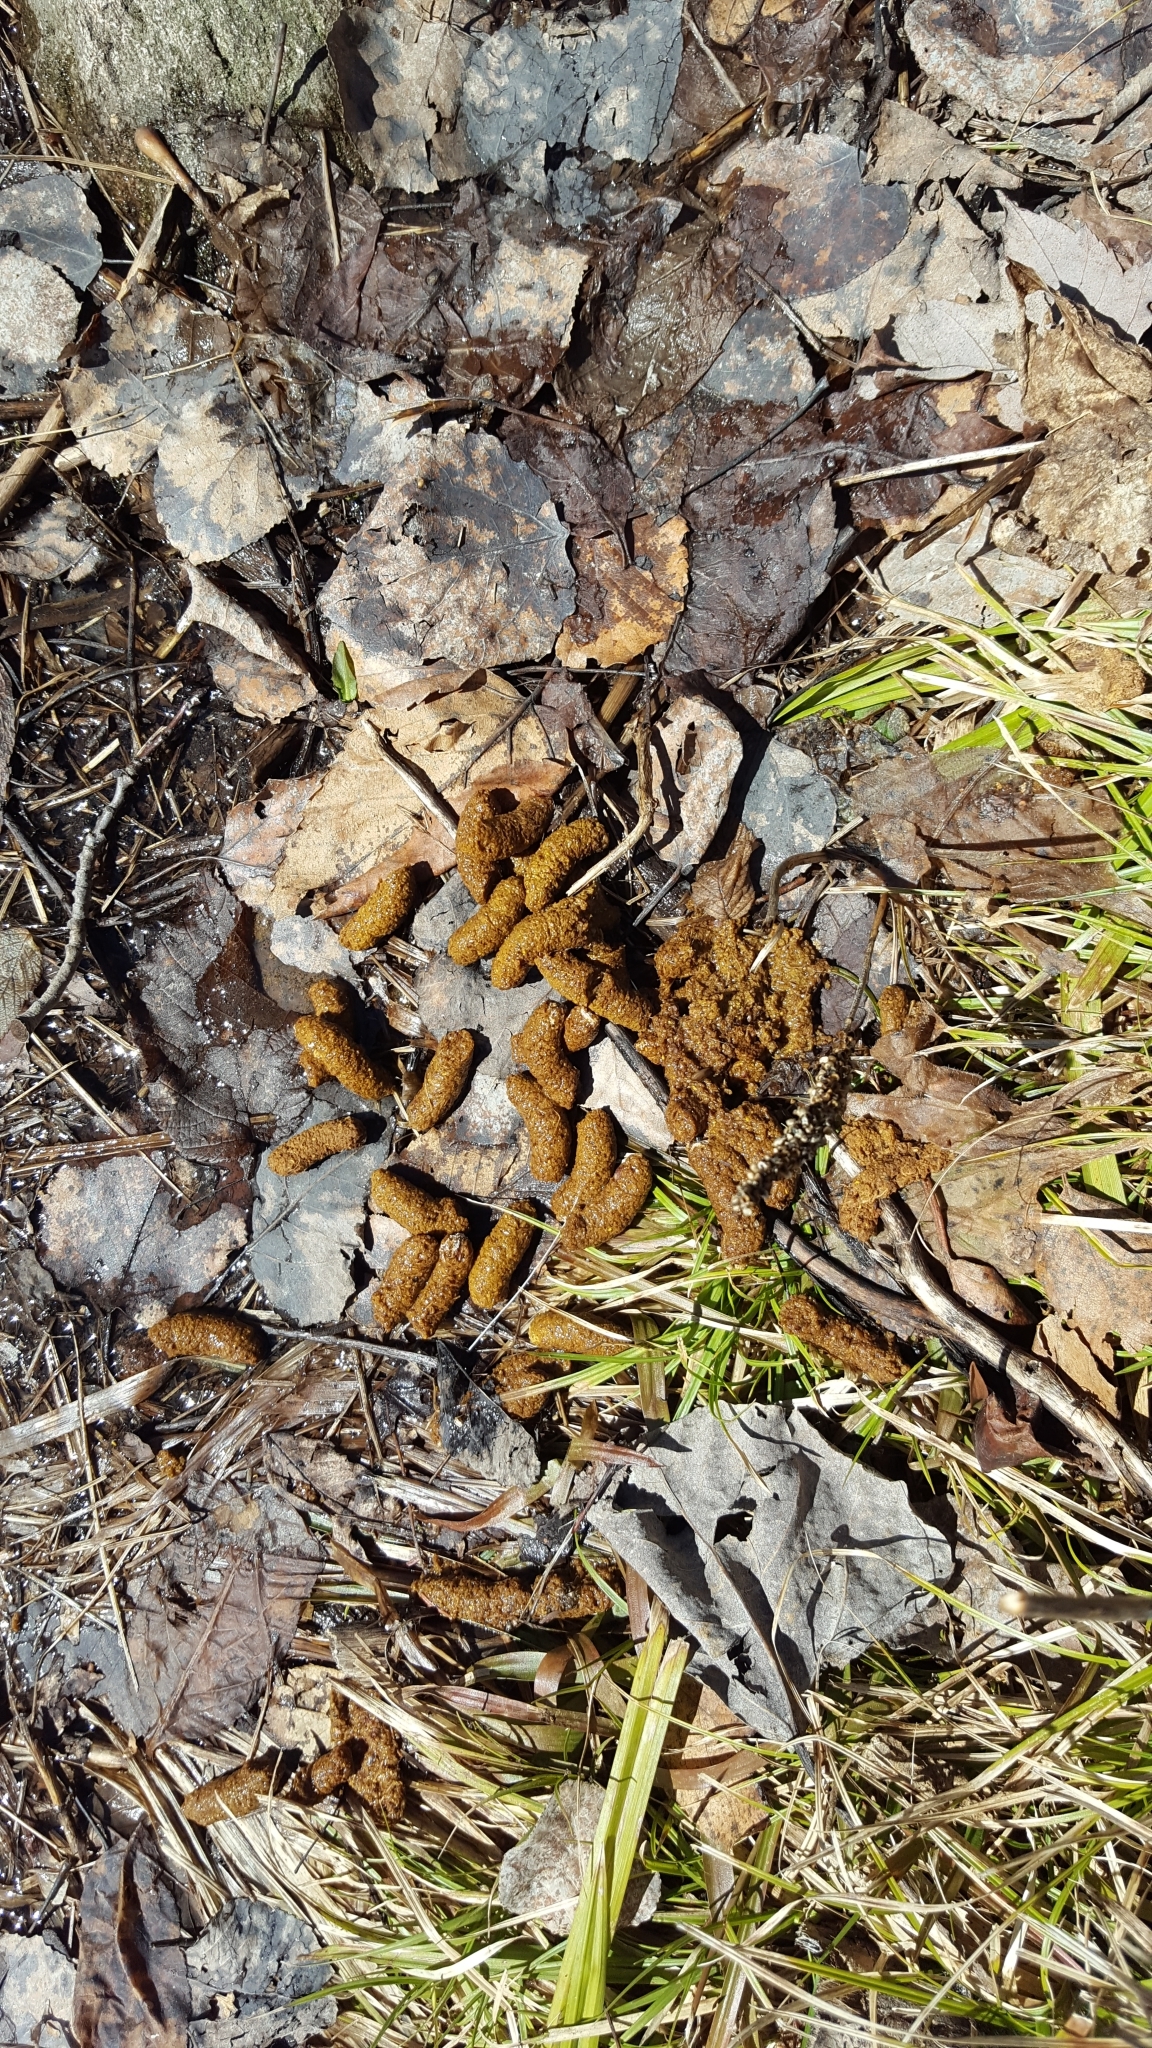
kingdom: Animalia
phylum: Chordata
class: Aves
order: Galliformes
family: Phasianidae
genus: Bonasa
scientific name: Bonasa umbellus
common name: Ruffed grouse
